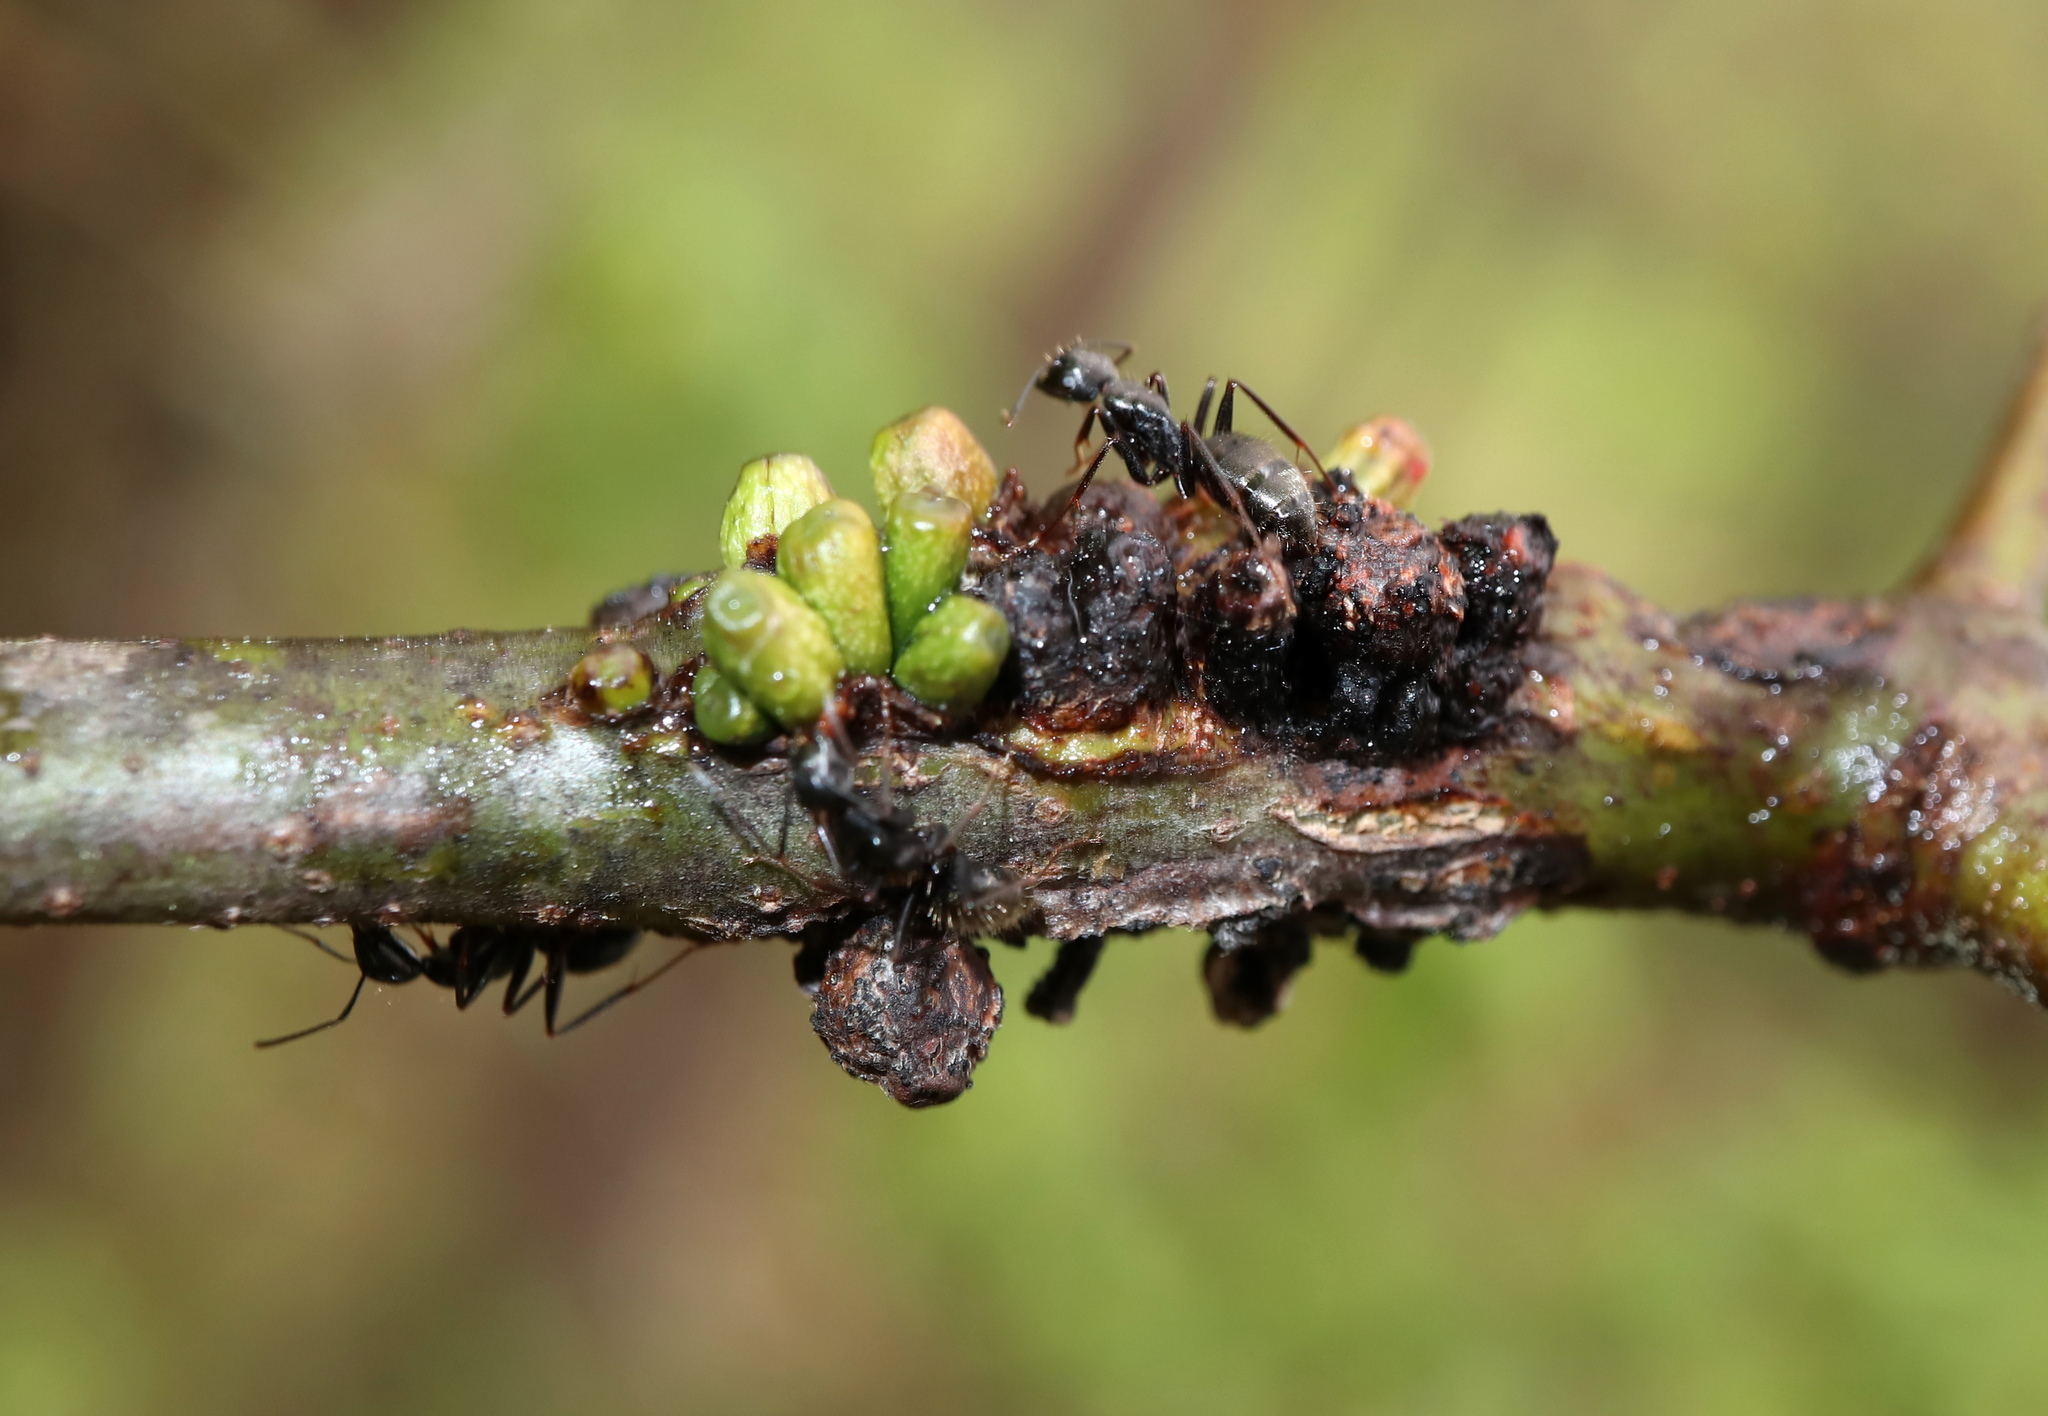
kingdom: Animalia
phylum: Arthropoda
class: Insecta
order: Hymenoptera
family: Cynipidae
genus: Synergus
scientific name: Synergus lignicola
